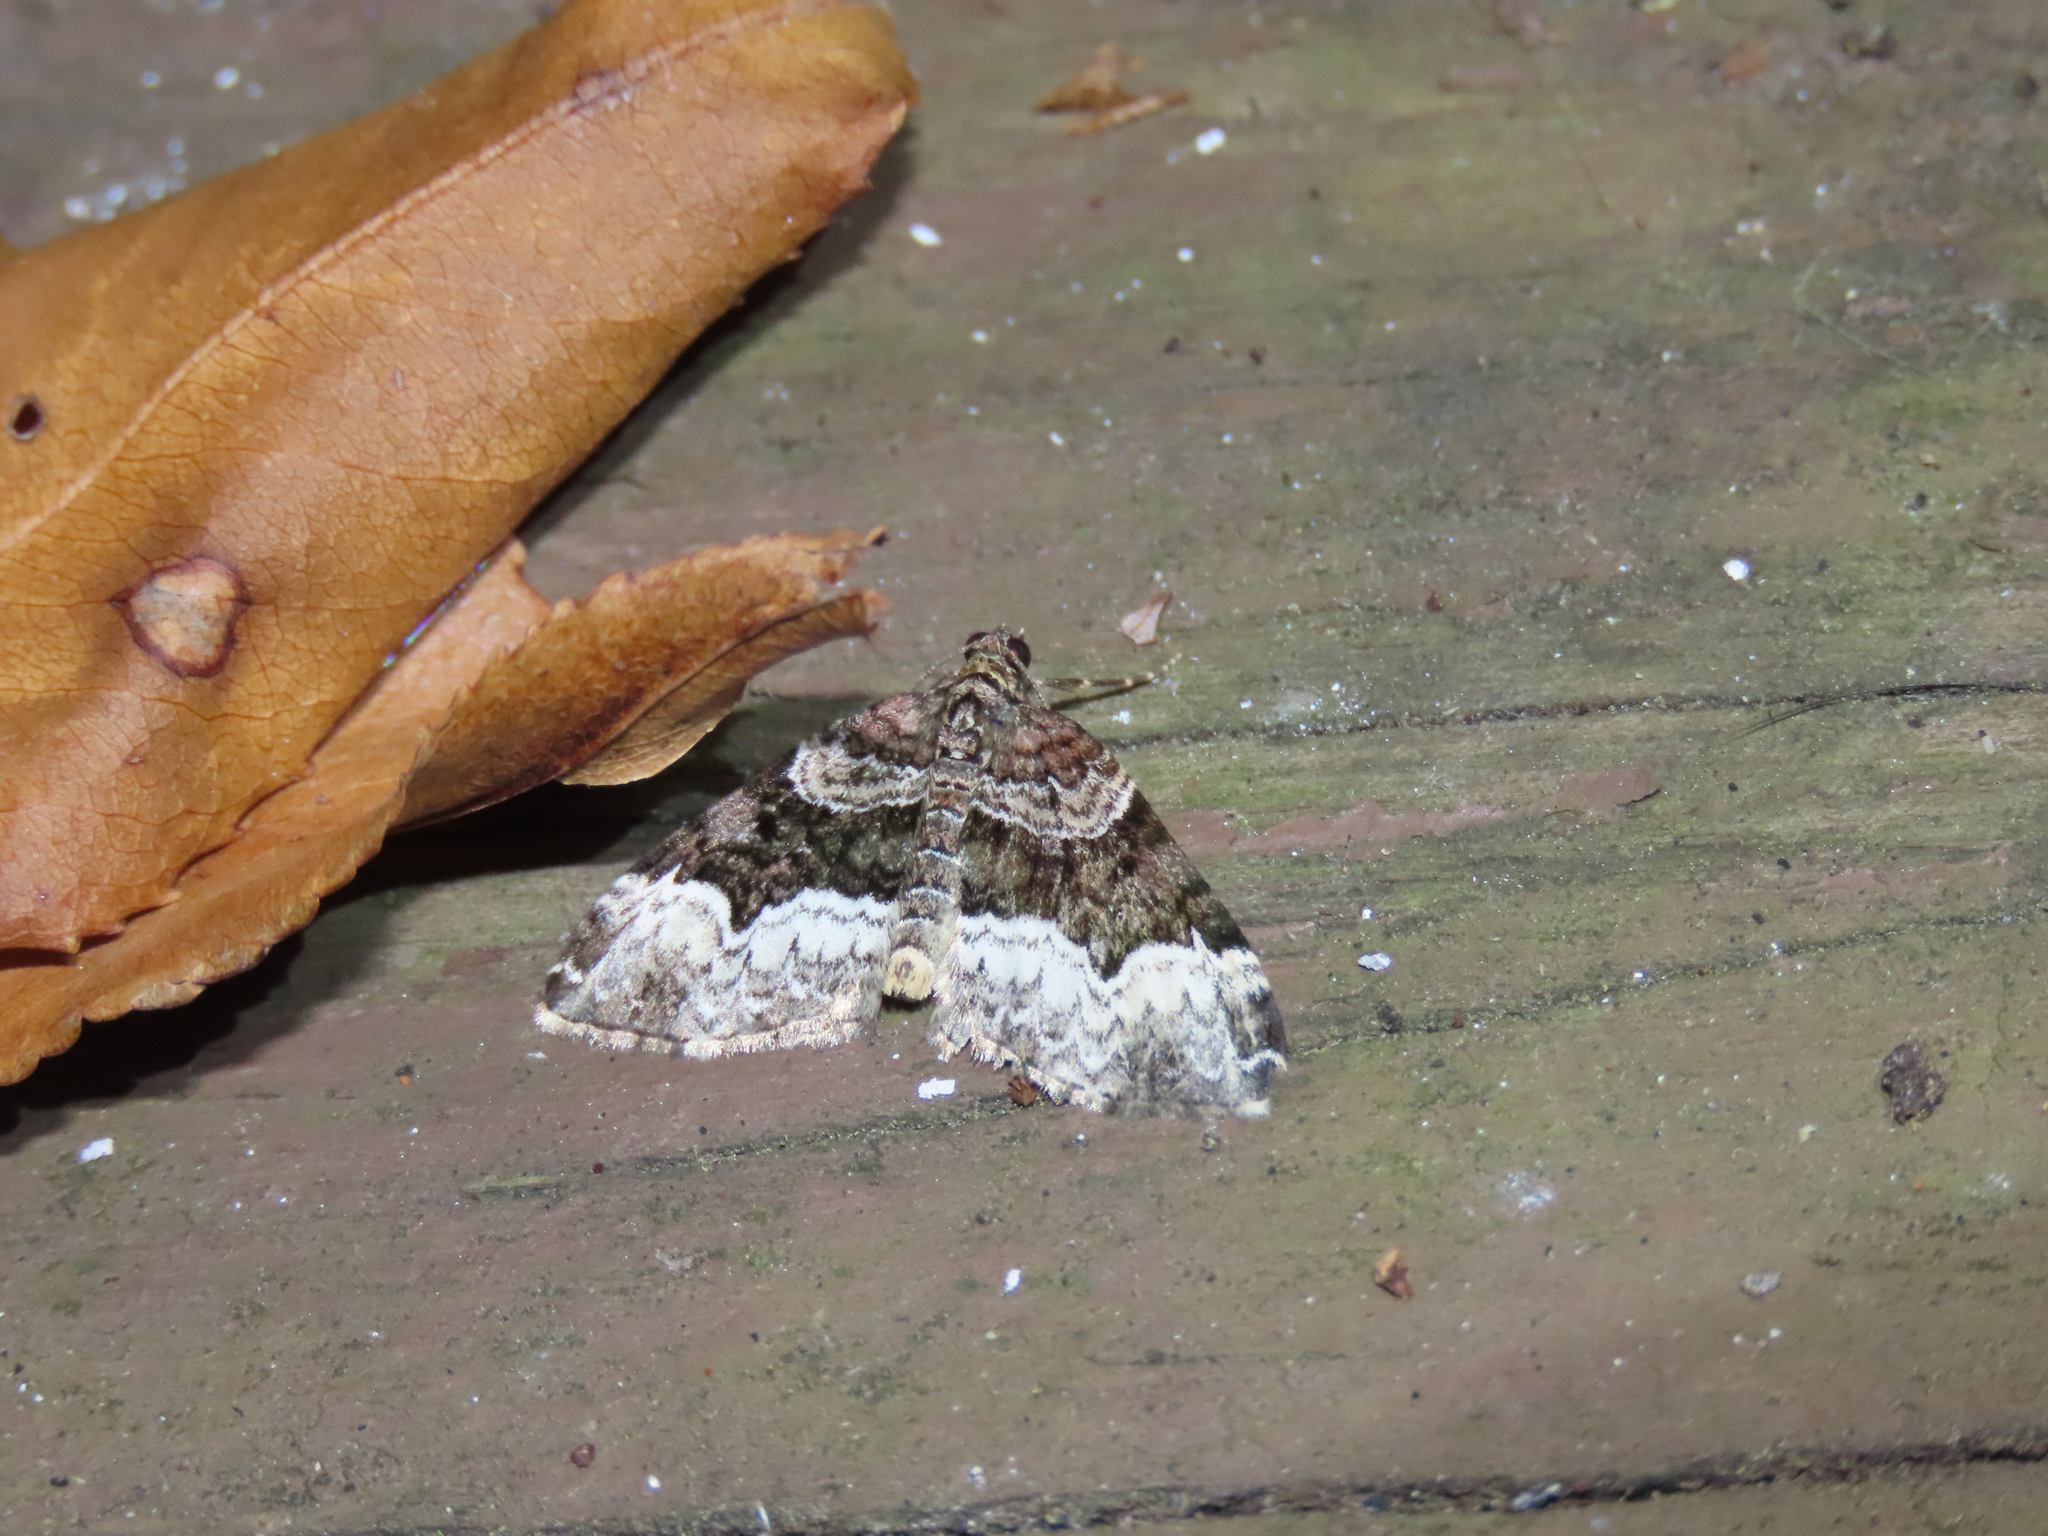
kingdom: Animalia
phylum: Arthropoda
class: Insecta
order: Lepidoptera
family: Geometridae
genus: Euphyia
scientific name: Euphyia intermediata
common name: Sharp-angled carpet
